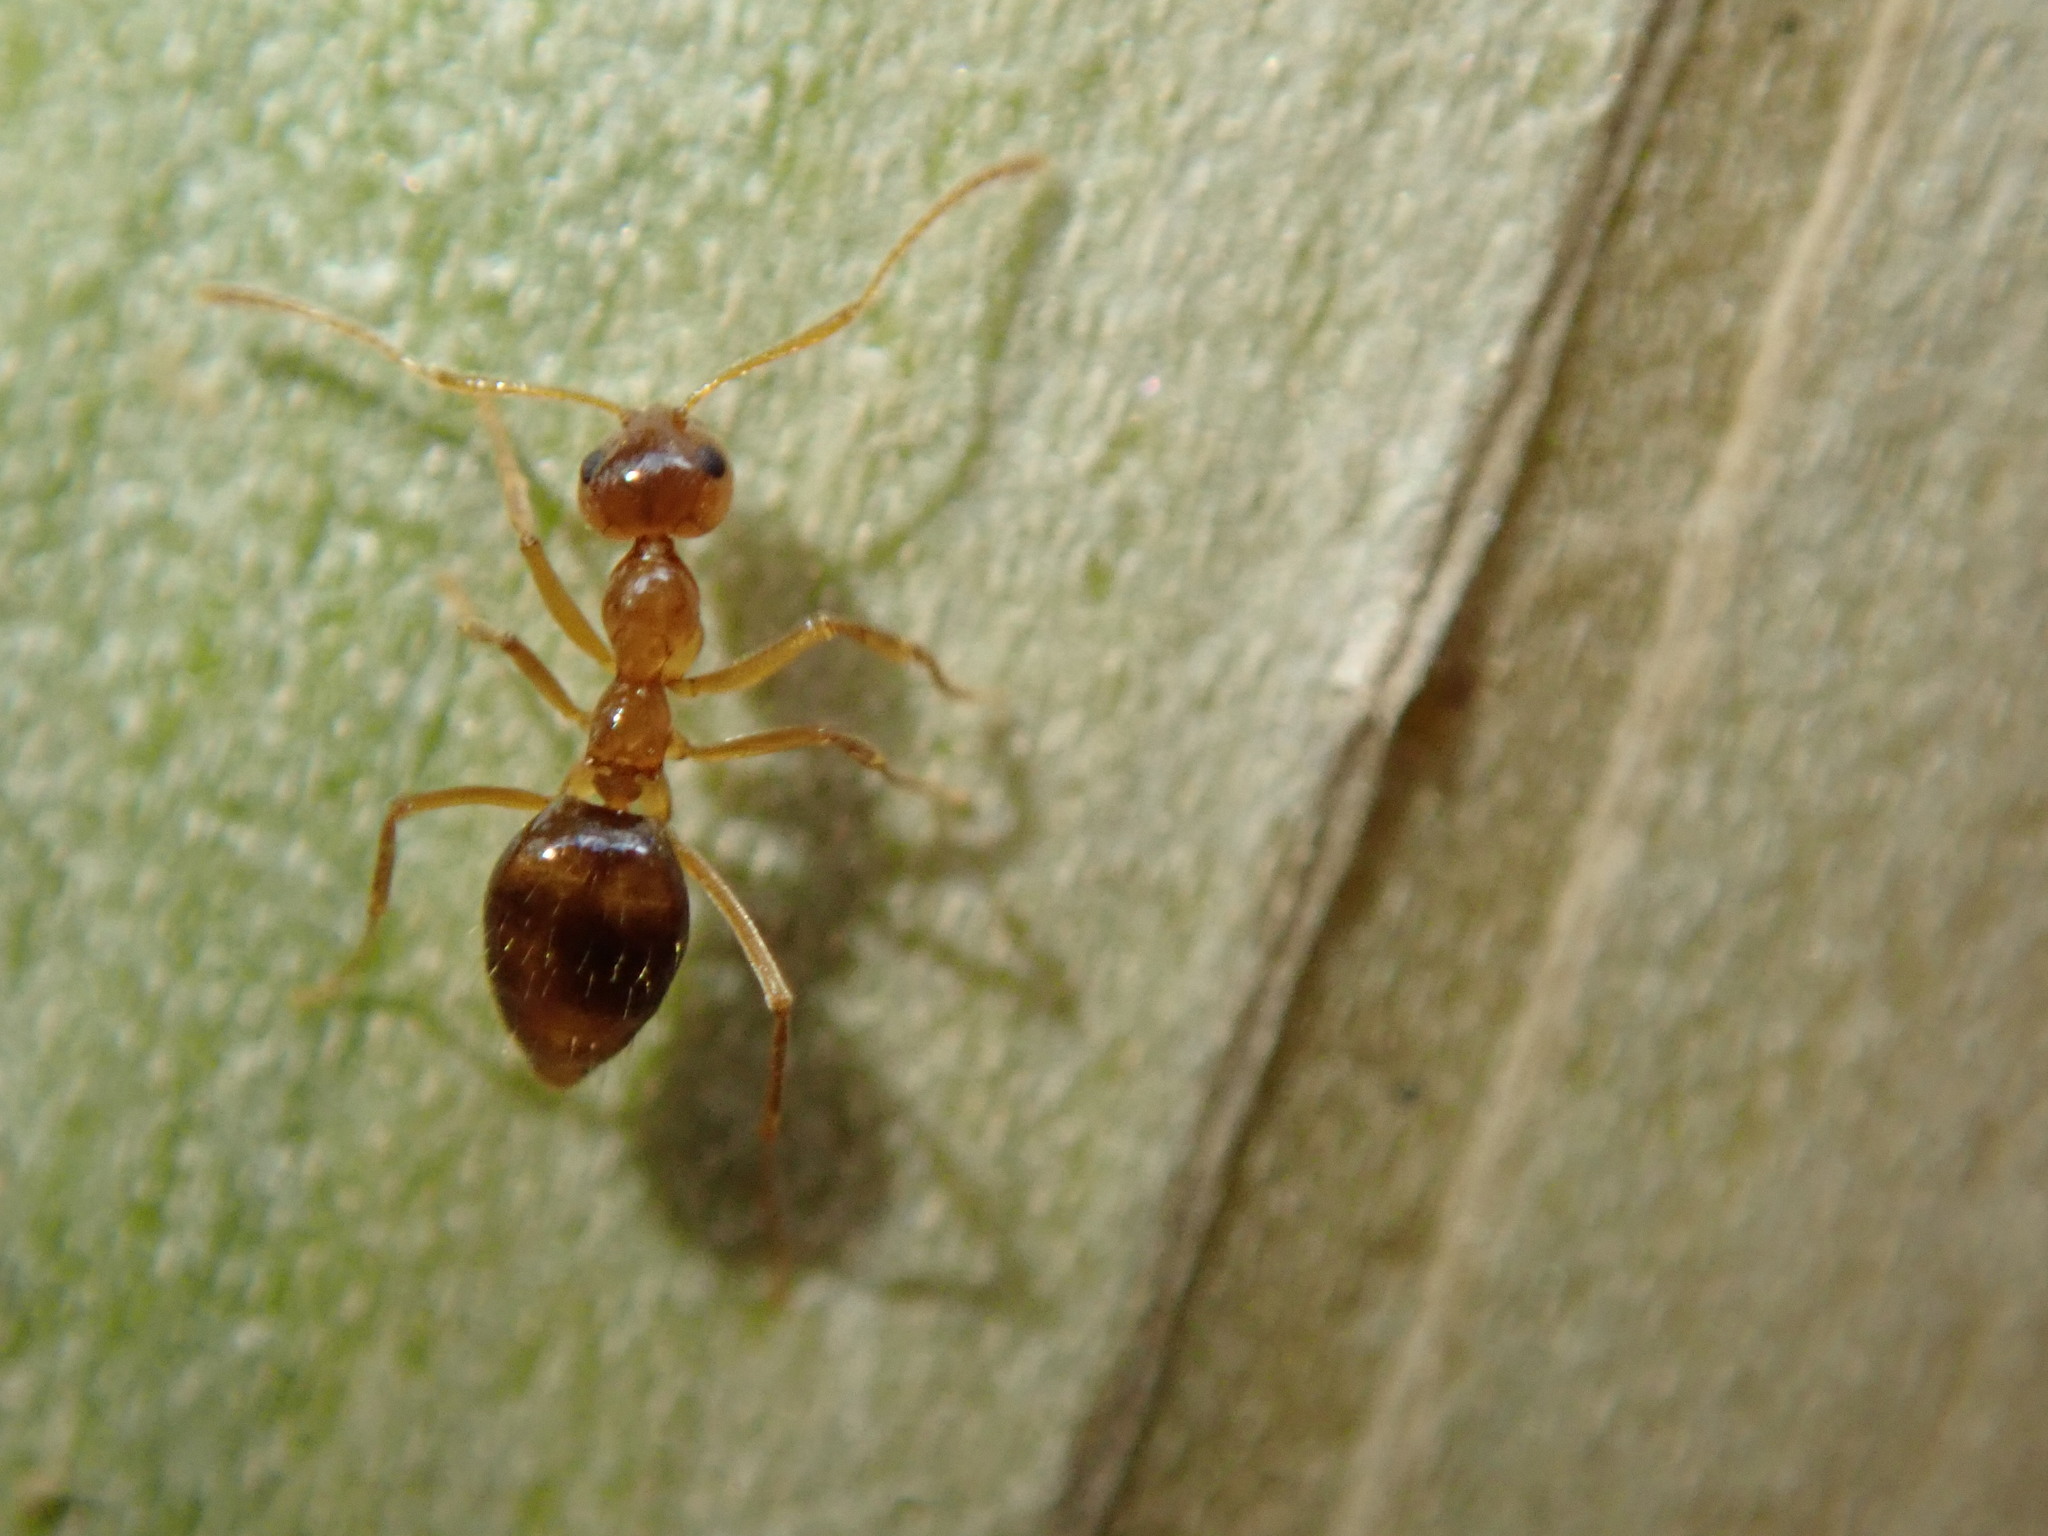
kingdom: Animalia
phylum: Arthropoda
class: Insecta
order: Hymenoptera
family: Formicidae
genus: Prenolepis
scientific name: Prenolepis imparis
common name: Small honey ant
